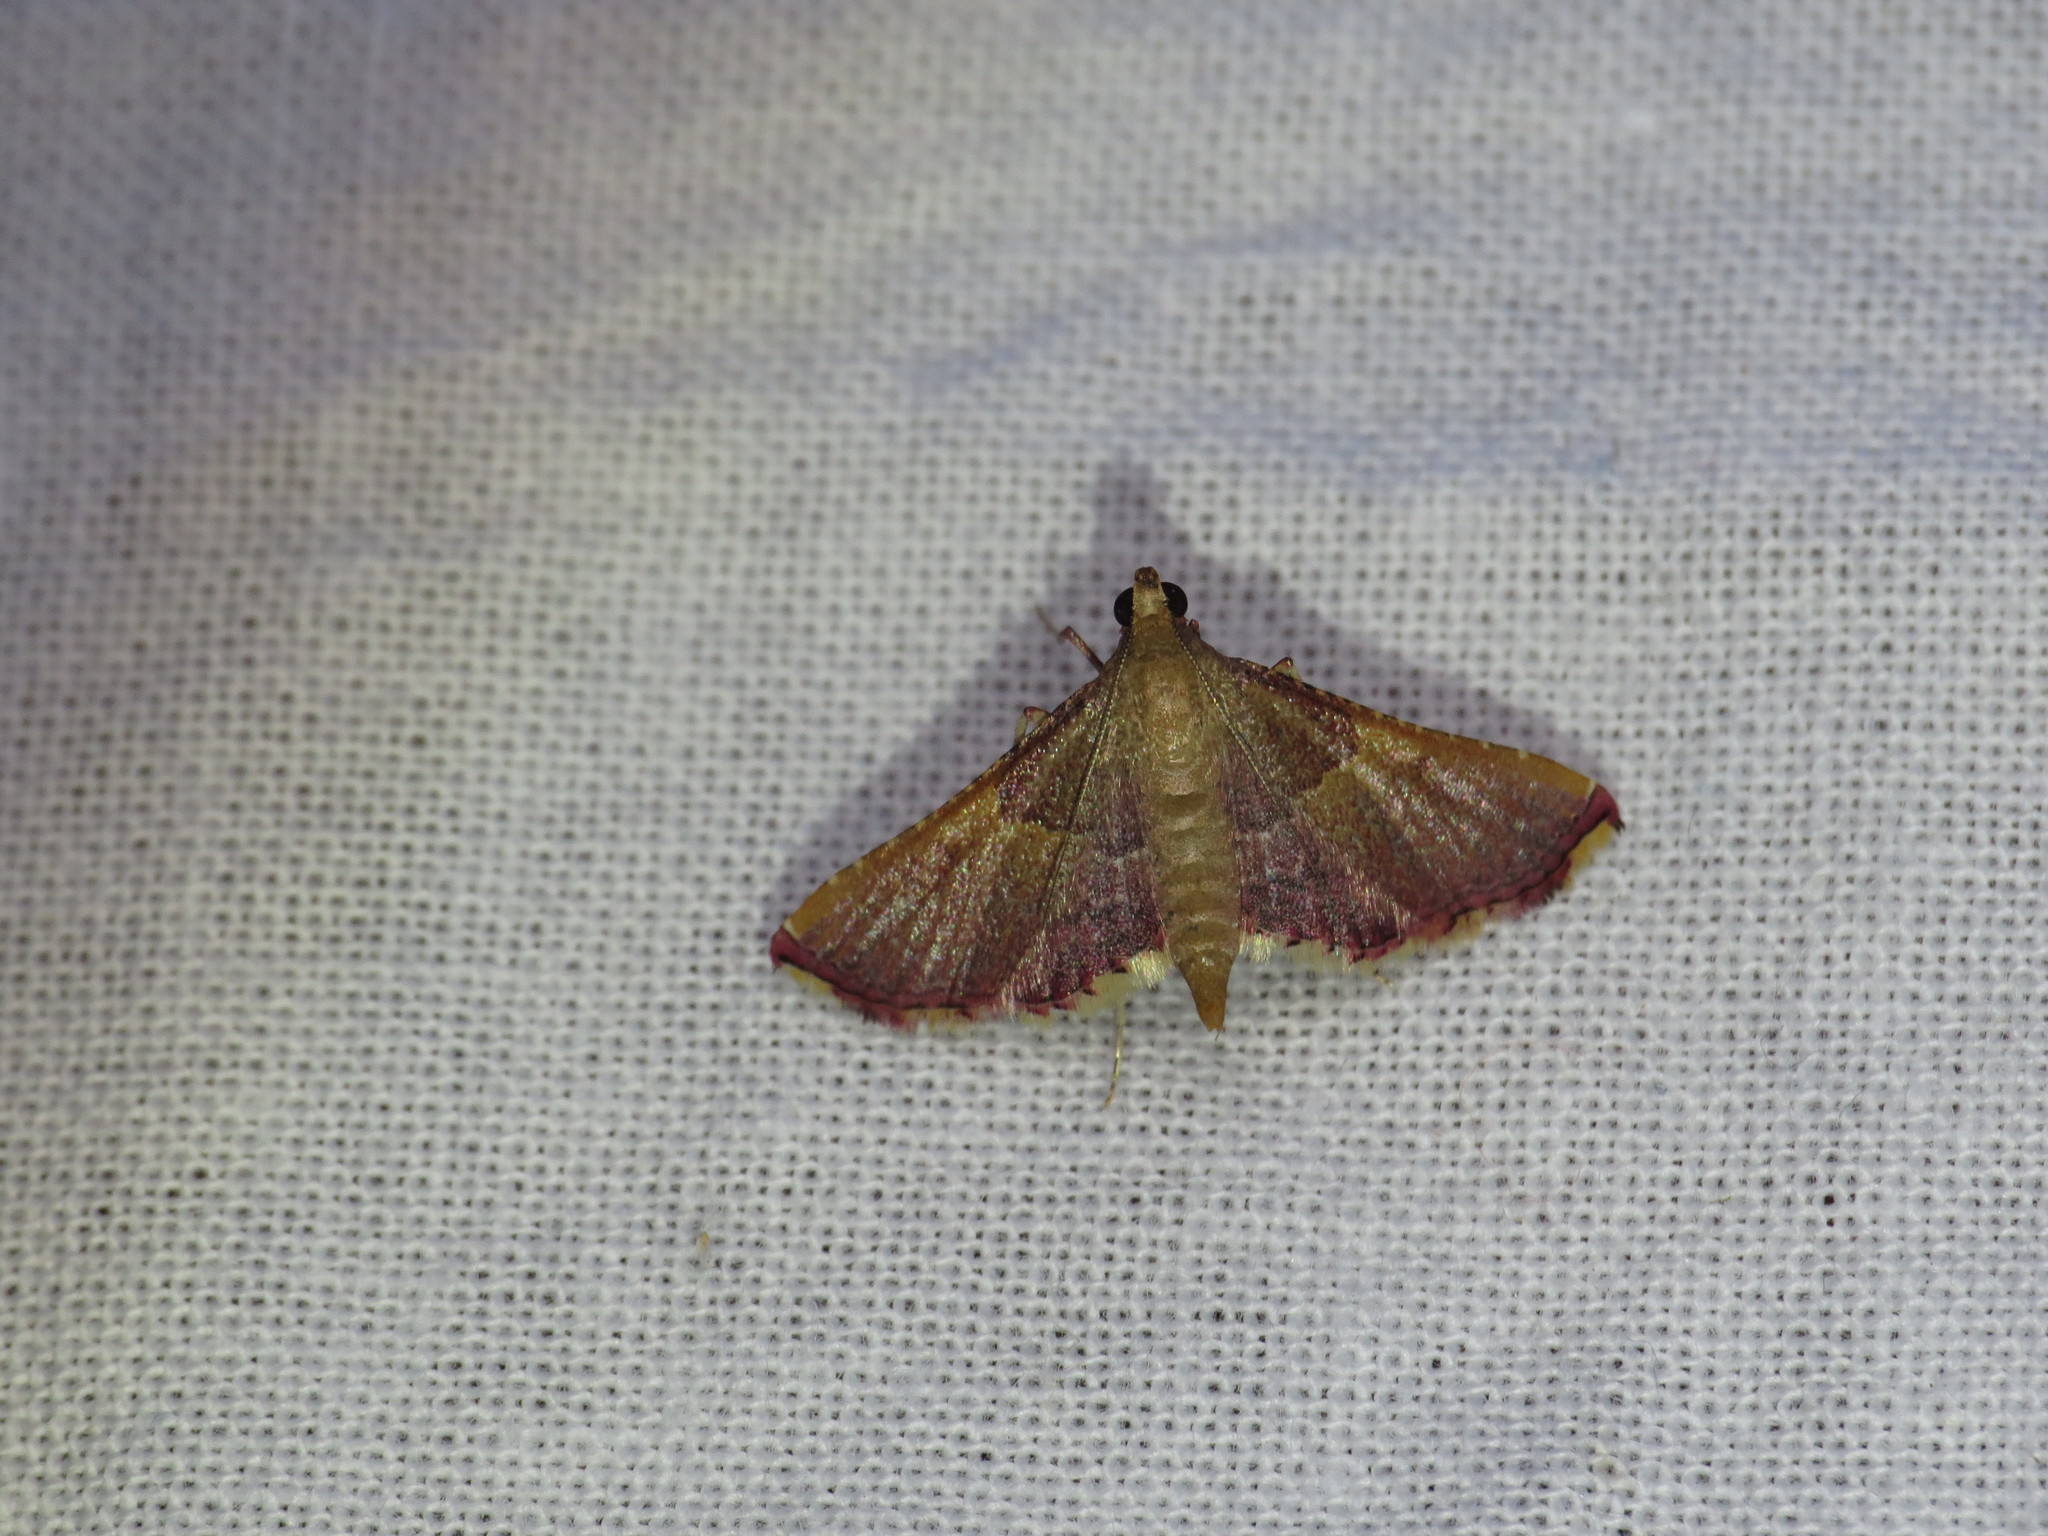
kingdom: Animalia
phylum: Arthropoda
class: Insecta
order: Lepidoptera
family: Pyralidae
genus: Endotricha
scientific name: Endotricha mesenterialis
